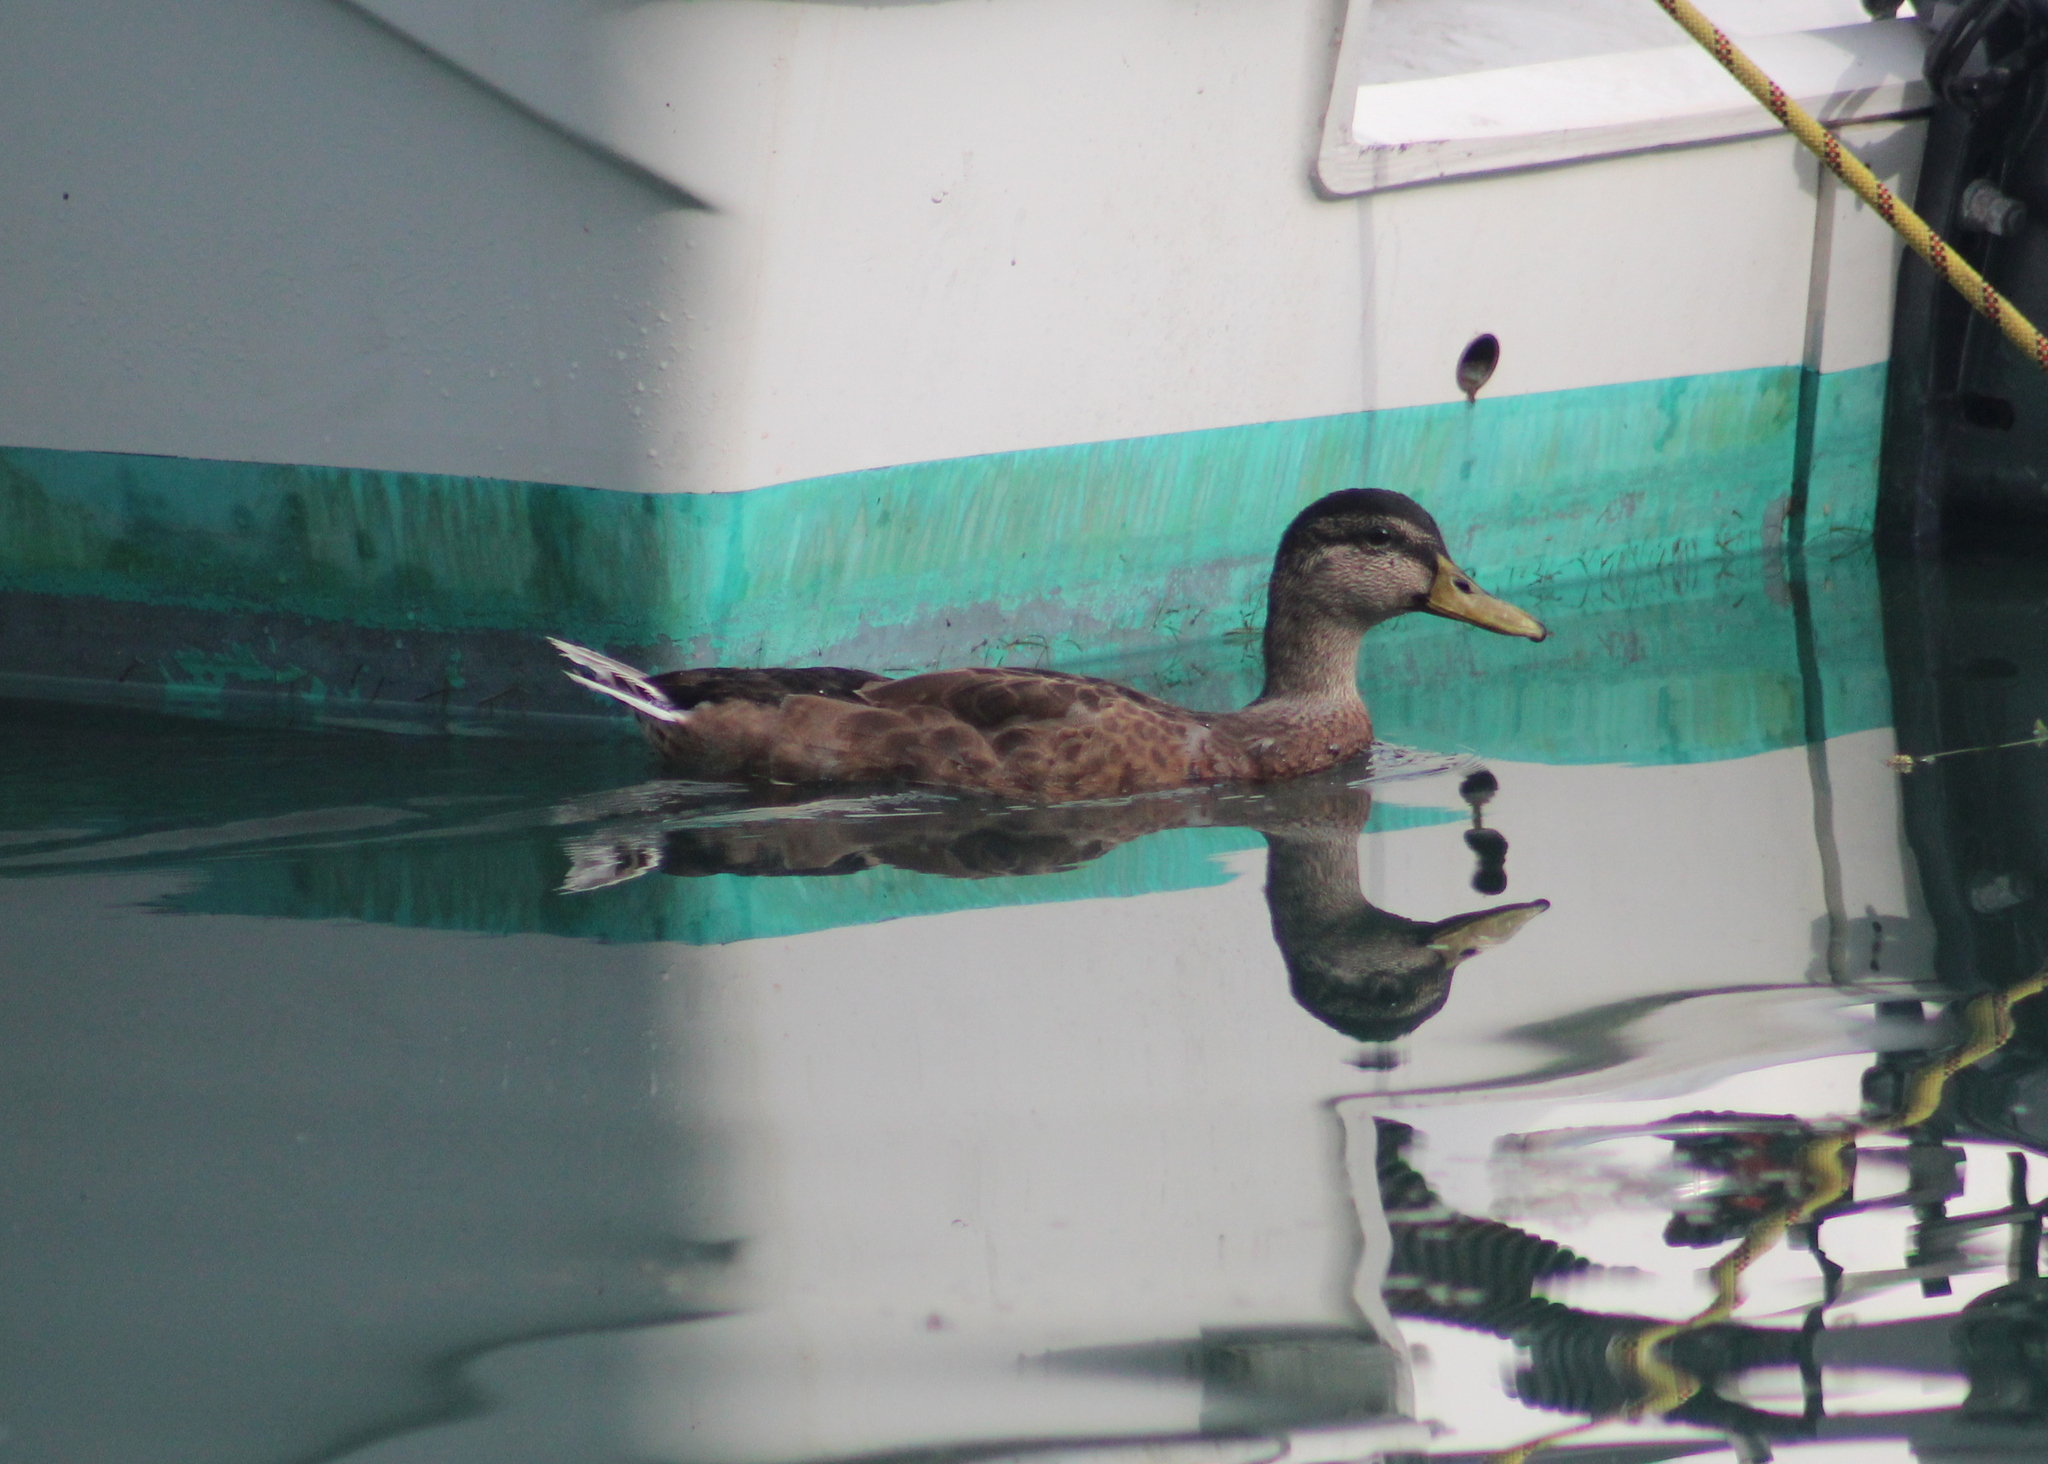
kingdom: Animalia
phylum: Chordata
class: Aves
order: Anseriformes
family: Anatidae
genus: Anas
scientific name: Anas platyrhynchos
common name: Mallard
